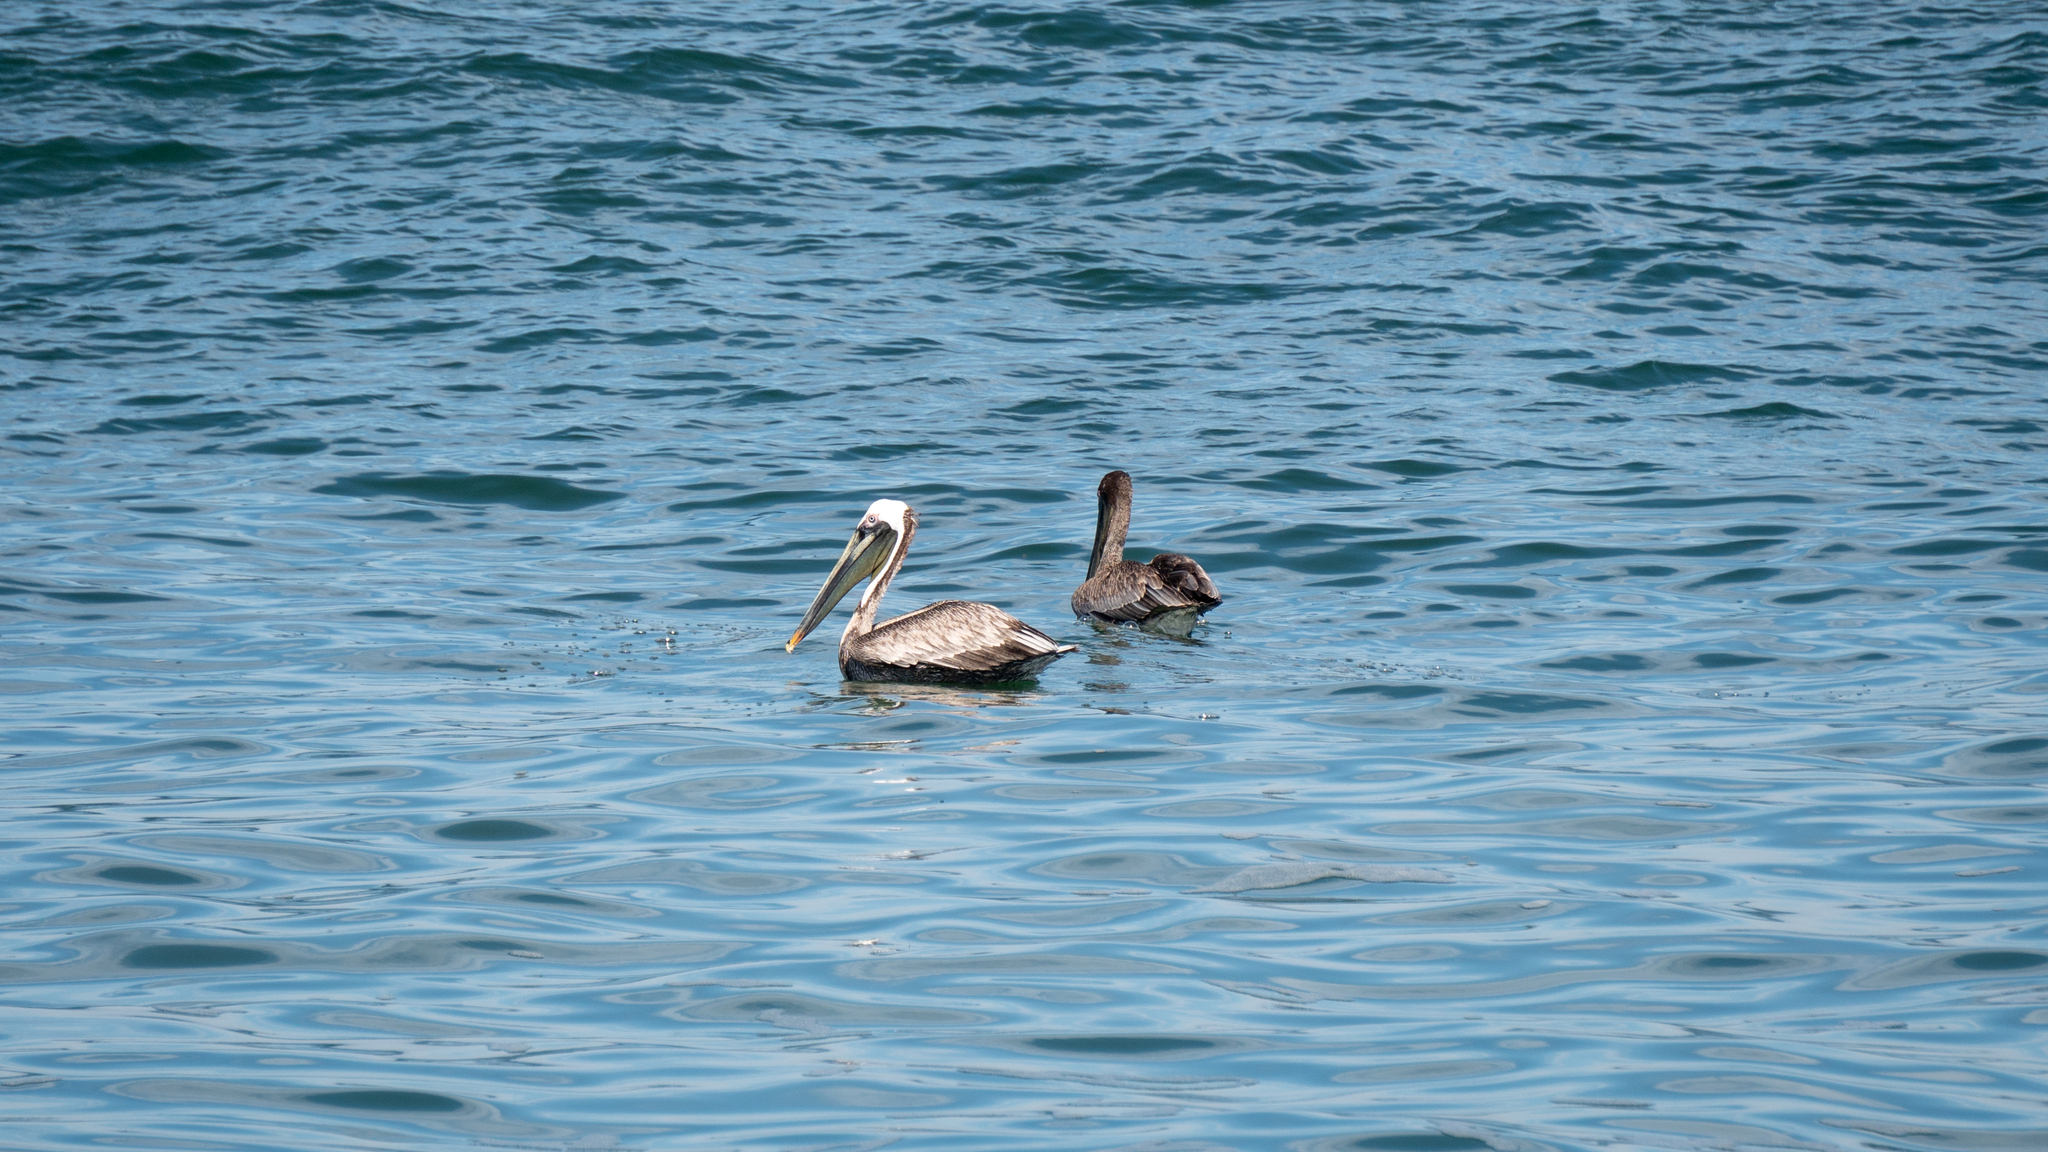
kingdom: Animalia
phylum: Chordata
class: Aves
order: Pelecaniformes
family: Pelecanidae
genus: Pelecanus
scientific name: Pelecanus occidentalis
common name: Brown pelican
